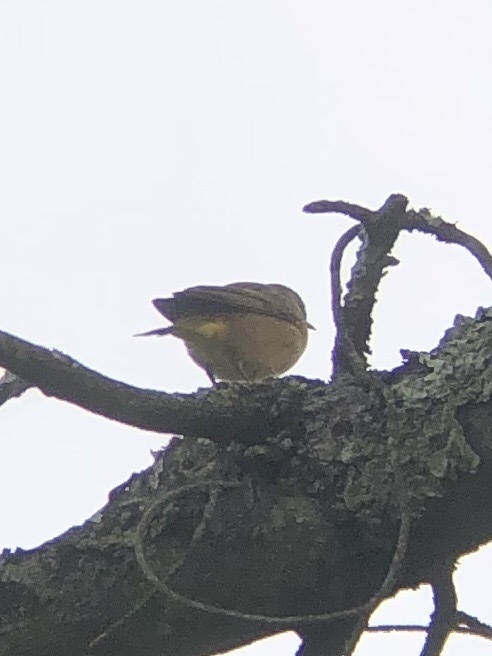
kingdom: Animalia
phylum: Chordata
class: Aves
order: Passeriformes
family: Parulidae
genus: Setophaga
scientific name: Setophaga palmarum
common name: Palm warbler
